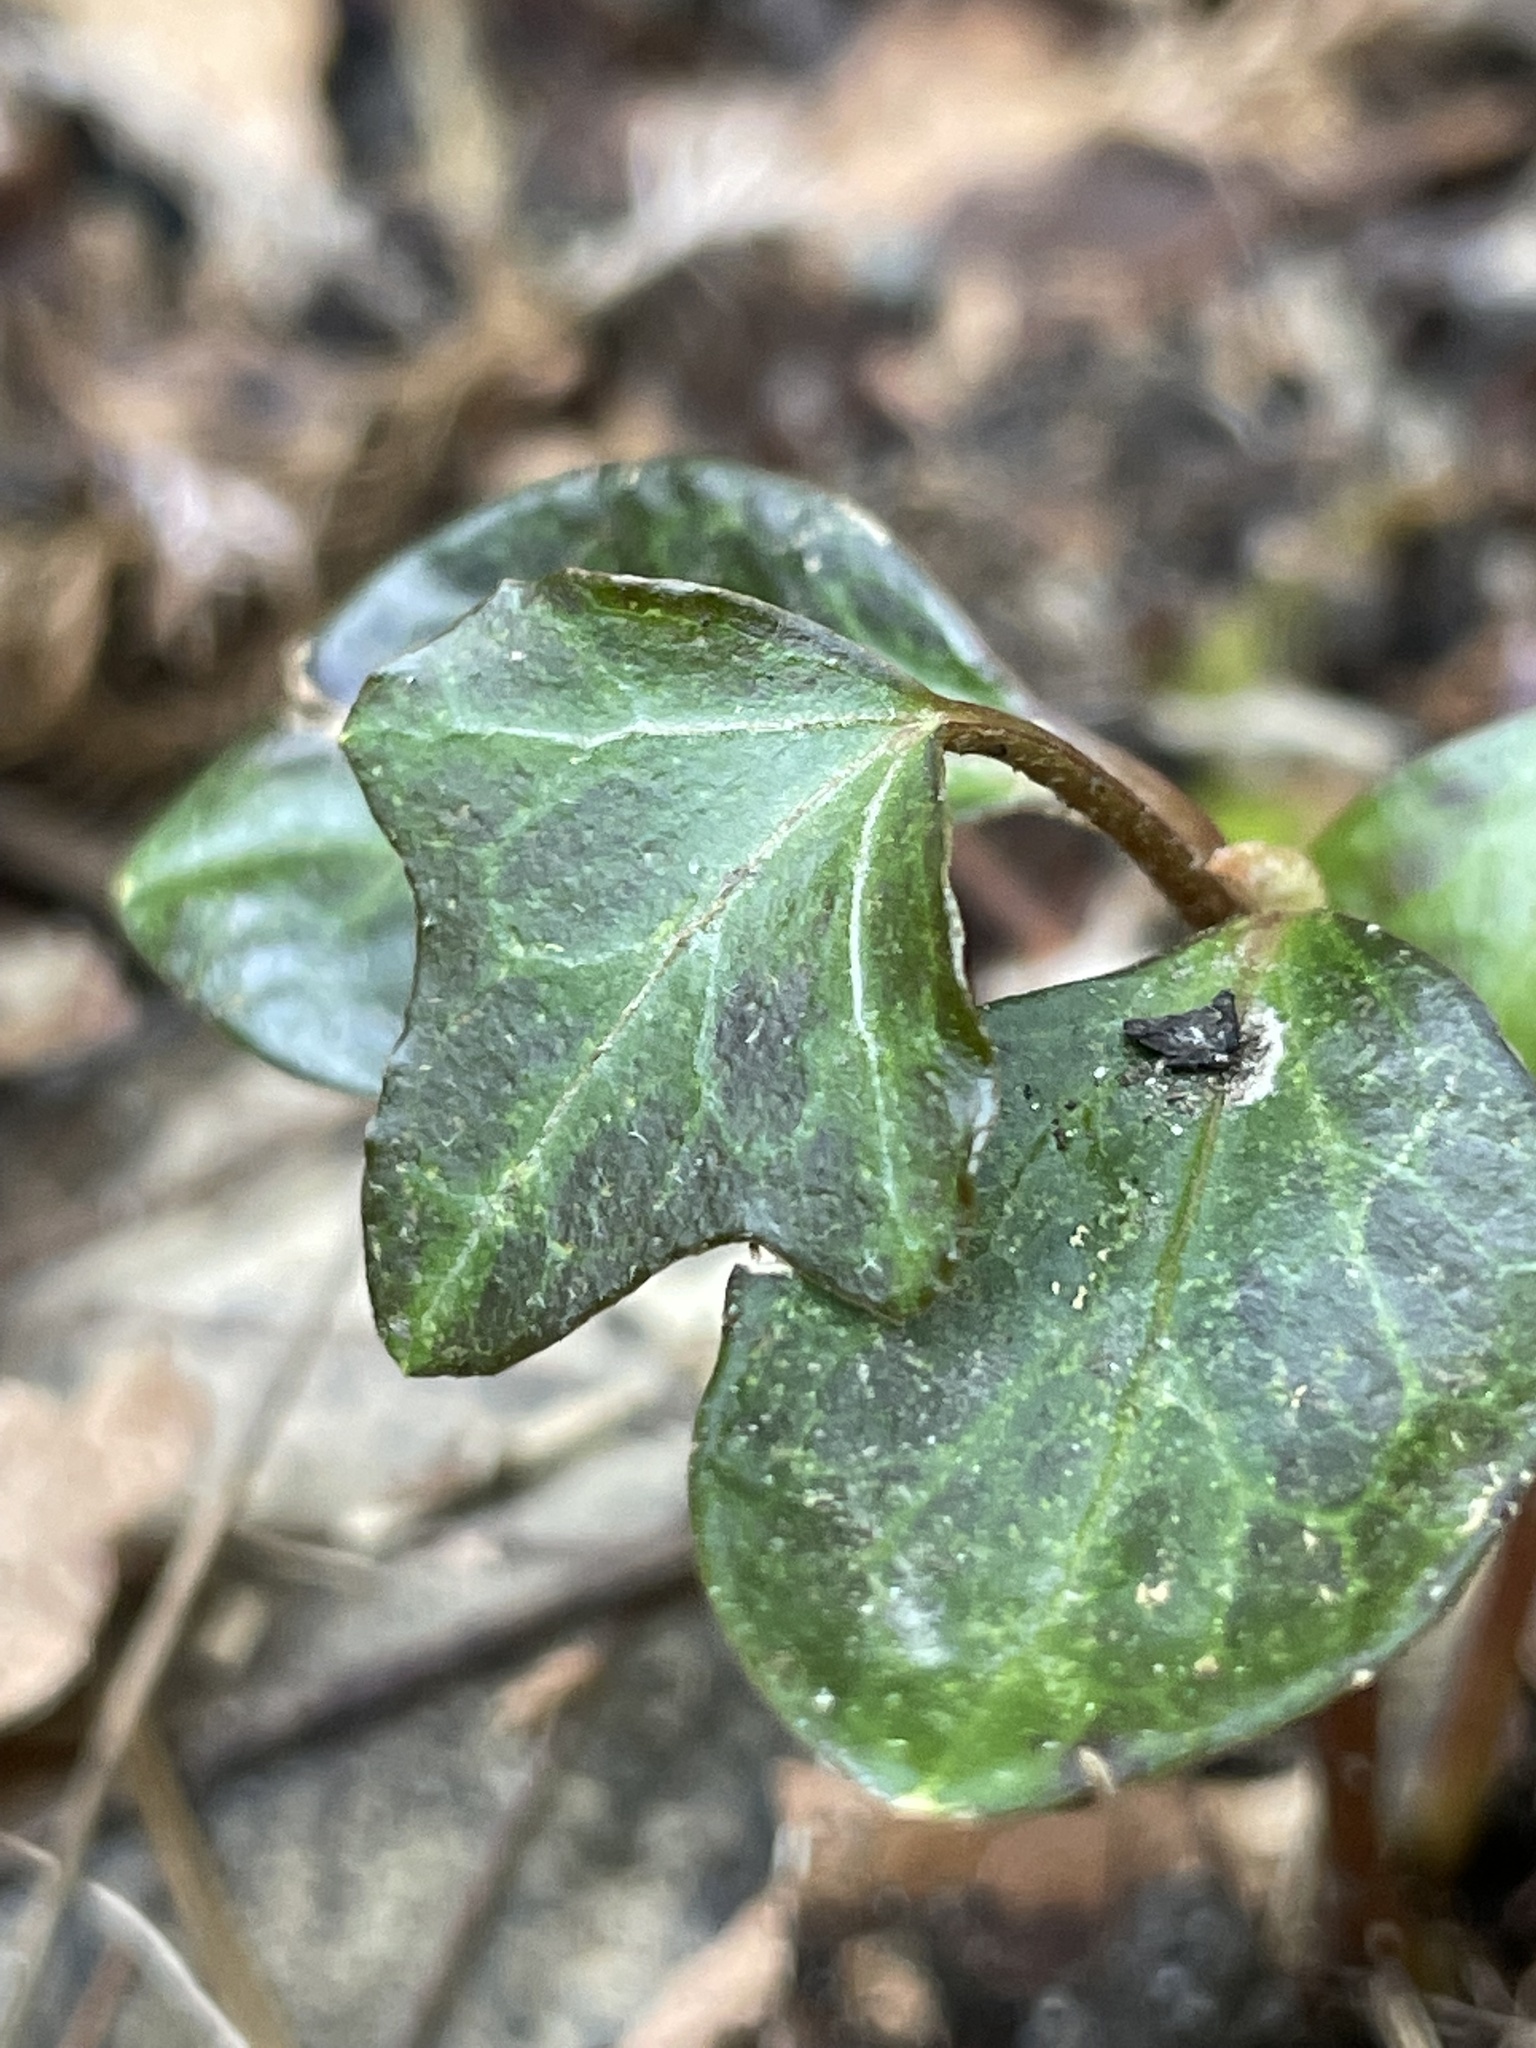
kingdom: Plantae
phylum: Tracheophyta
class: Magnoliopsida
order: Apiales
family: Araliaceae
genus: Hedera
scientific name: Hedera hibernica
